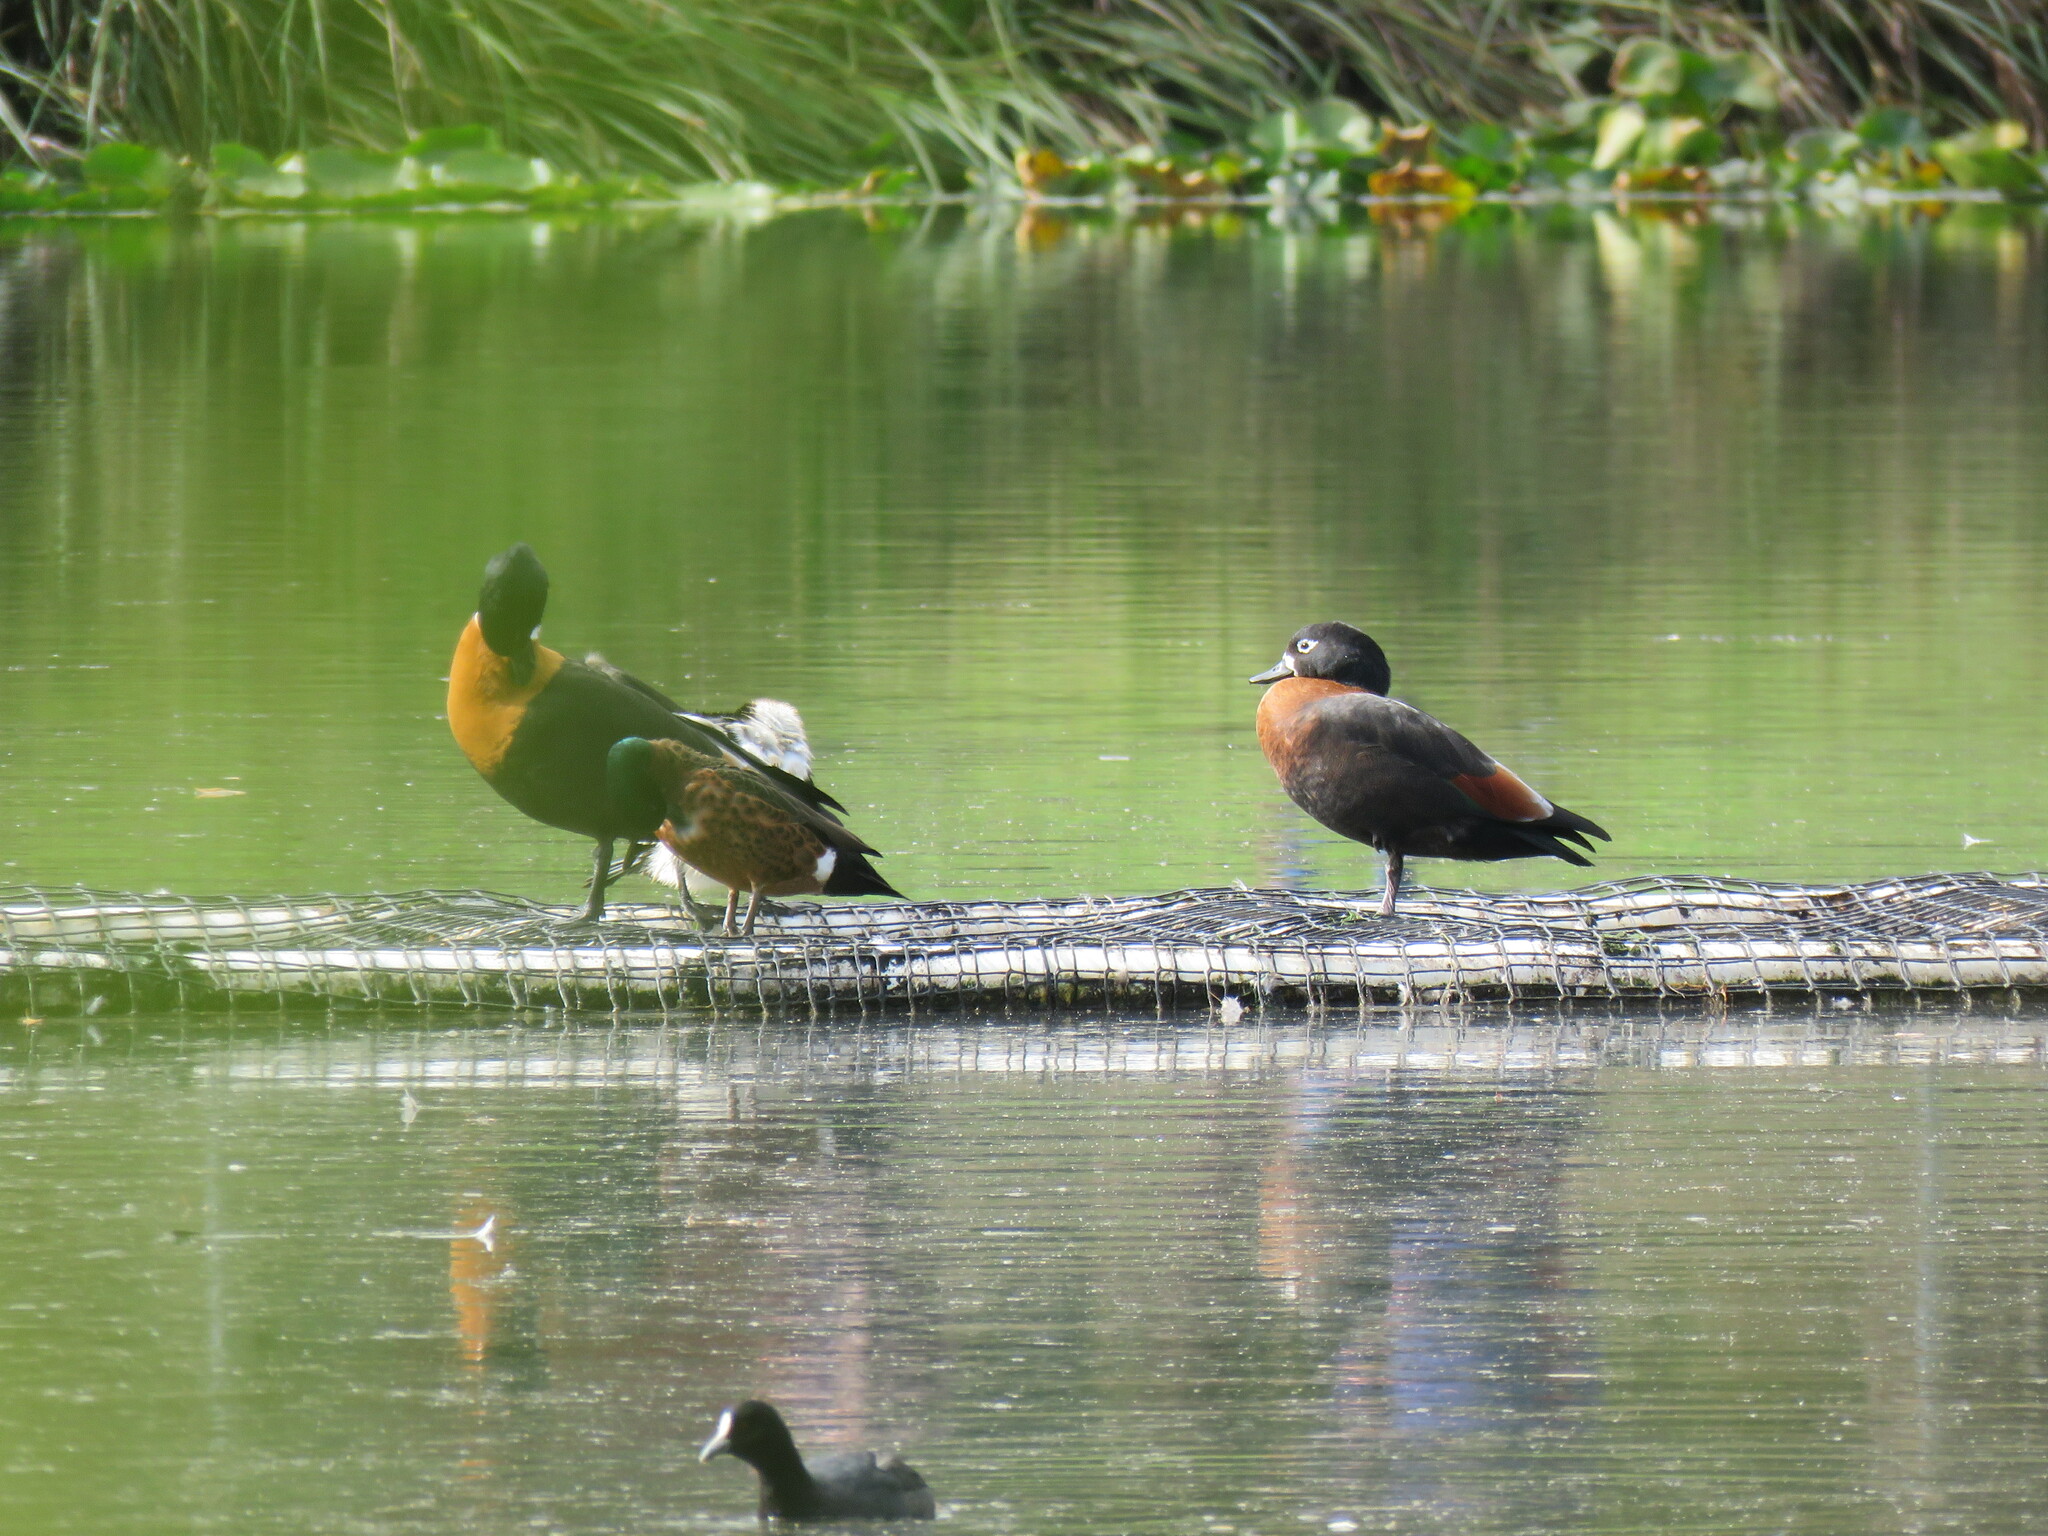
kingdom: Animalia
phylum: Chordata
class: Aves
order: Gruiformes
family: Rallidae
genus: Fulica
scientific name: Fulica atra
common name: Eurasian coot
